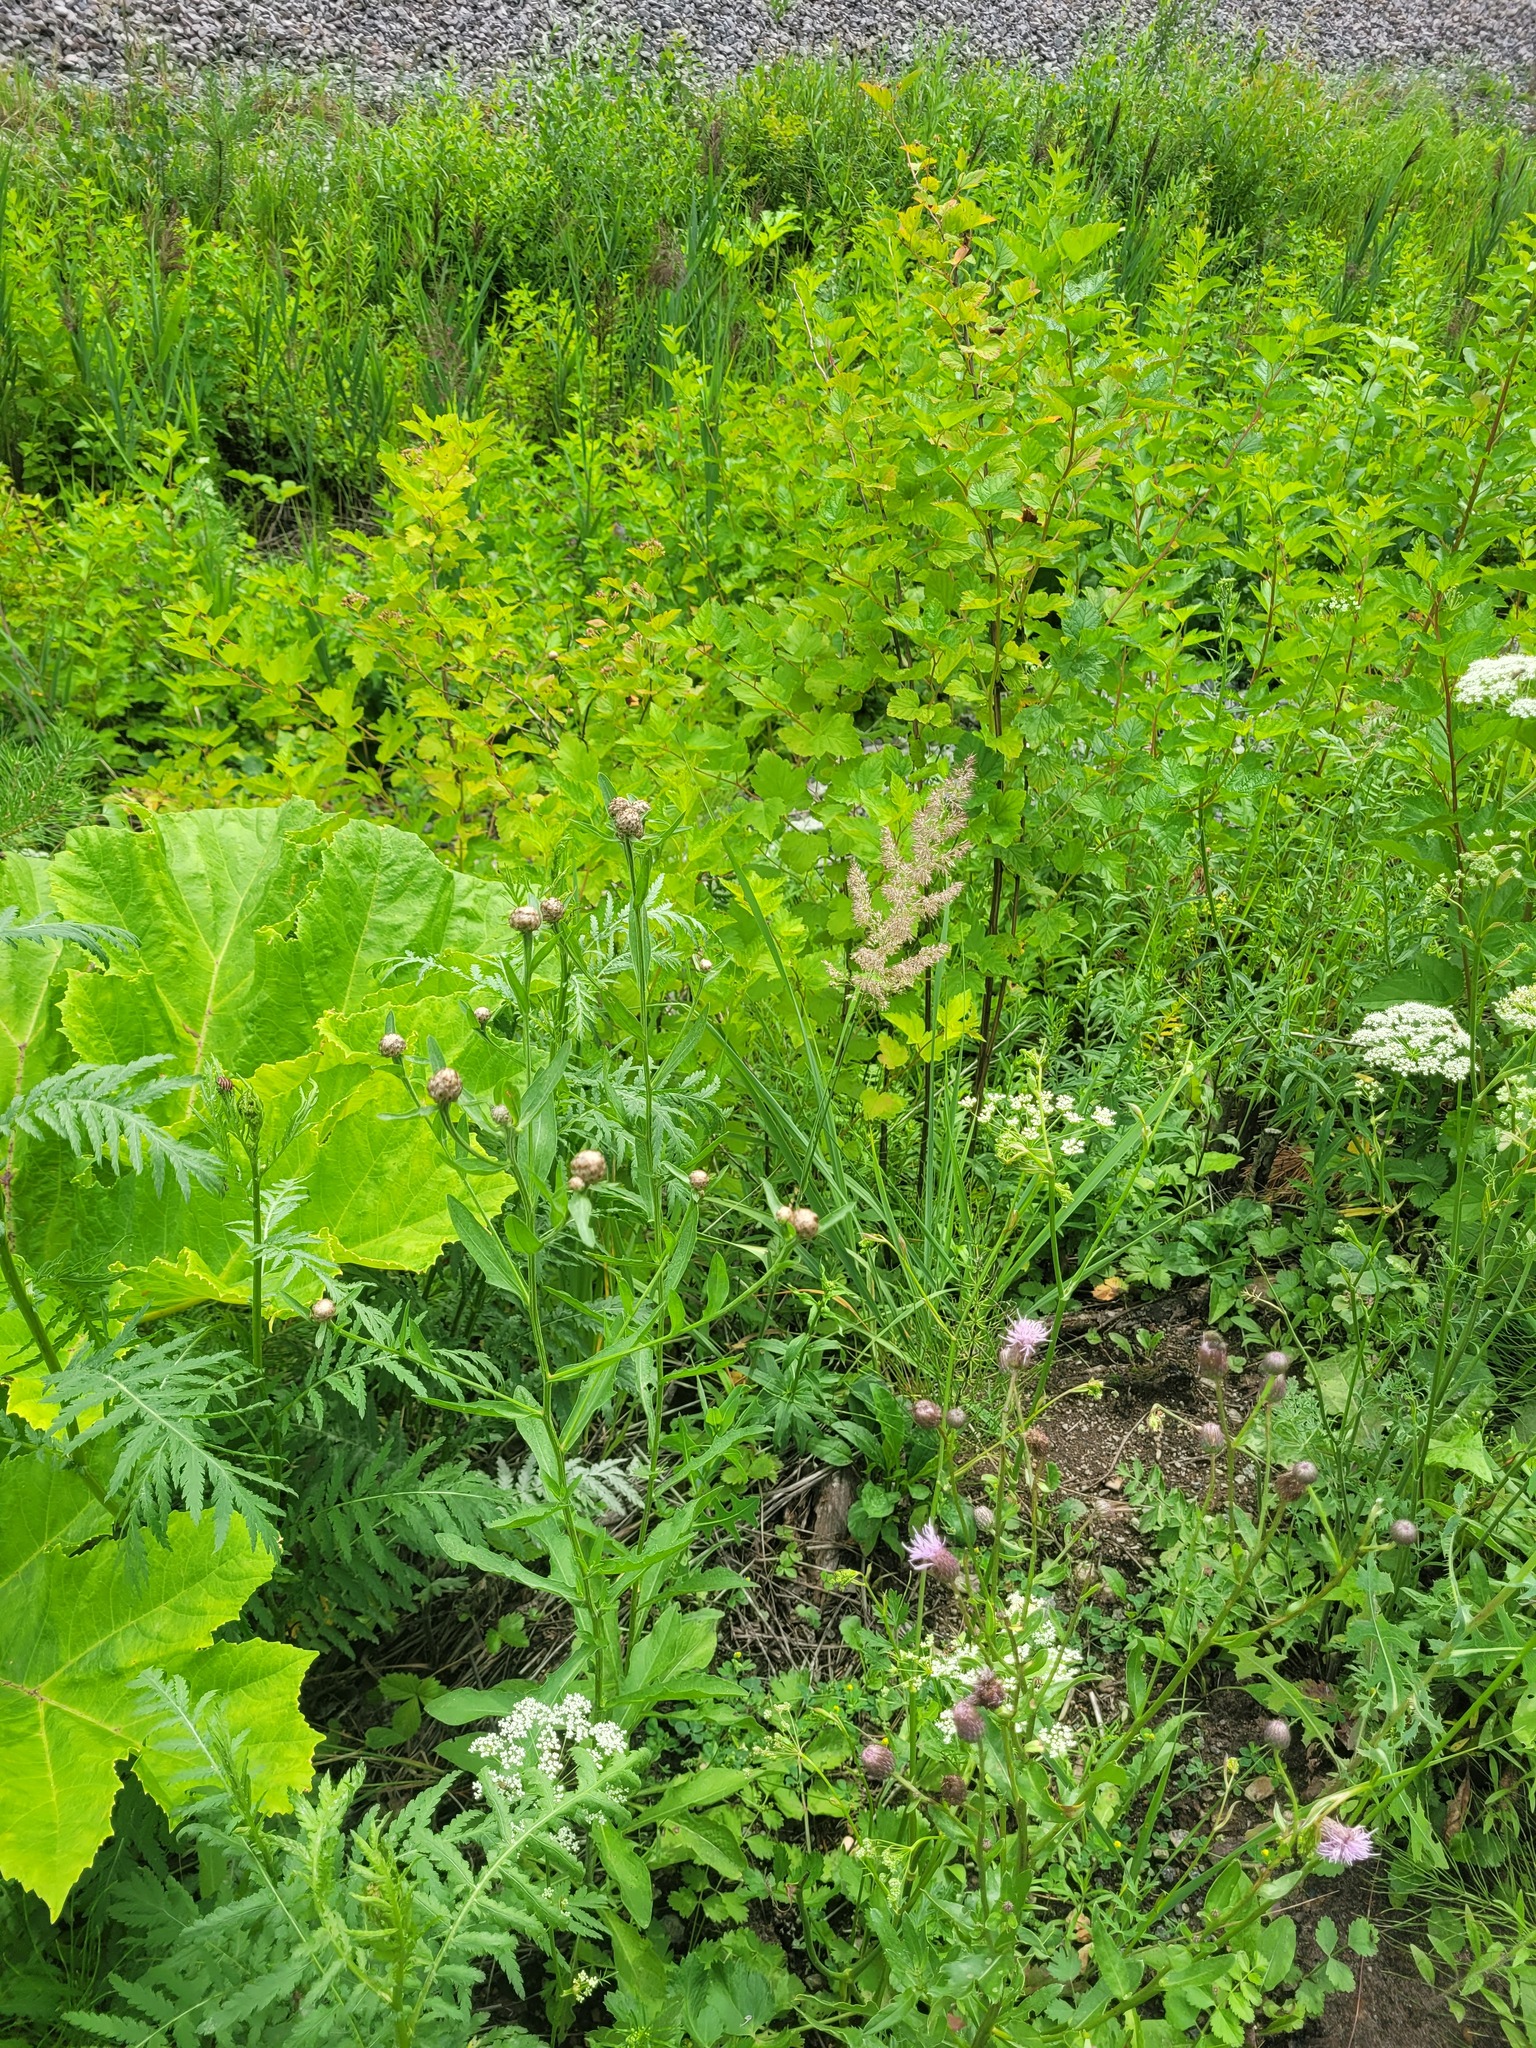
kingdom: Plantae
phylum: Tracheophyta
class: Magnoliopsida
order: Asterales
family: Asteraceae
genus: Centaurea
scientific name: Centaurea jacea
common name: Brown knapweed
